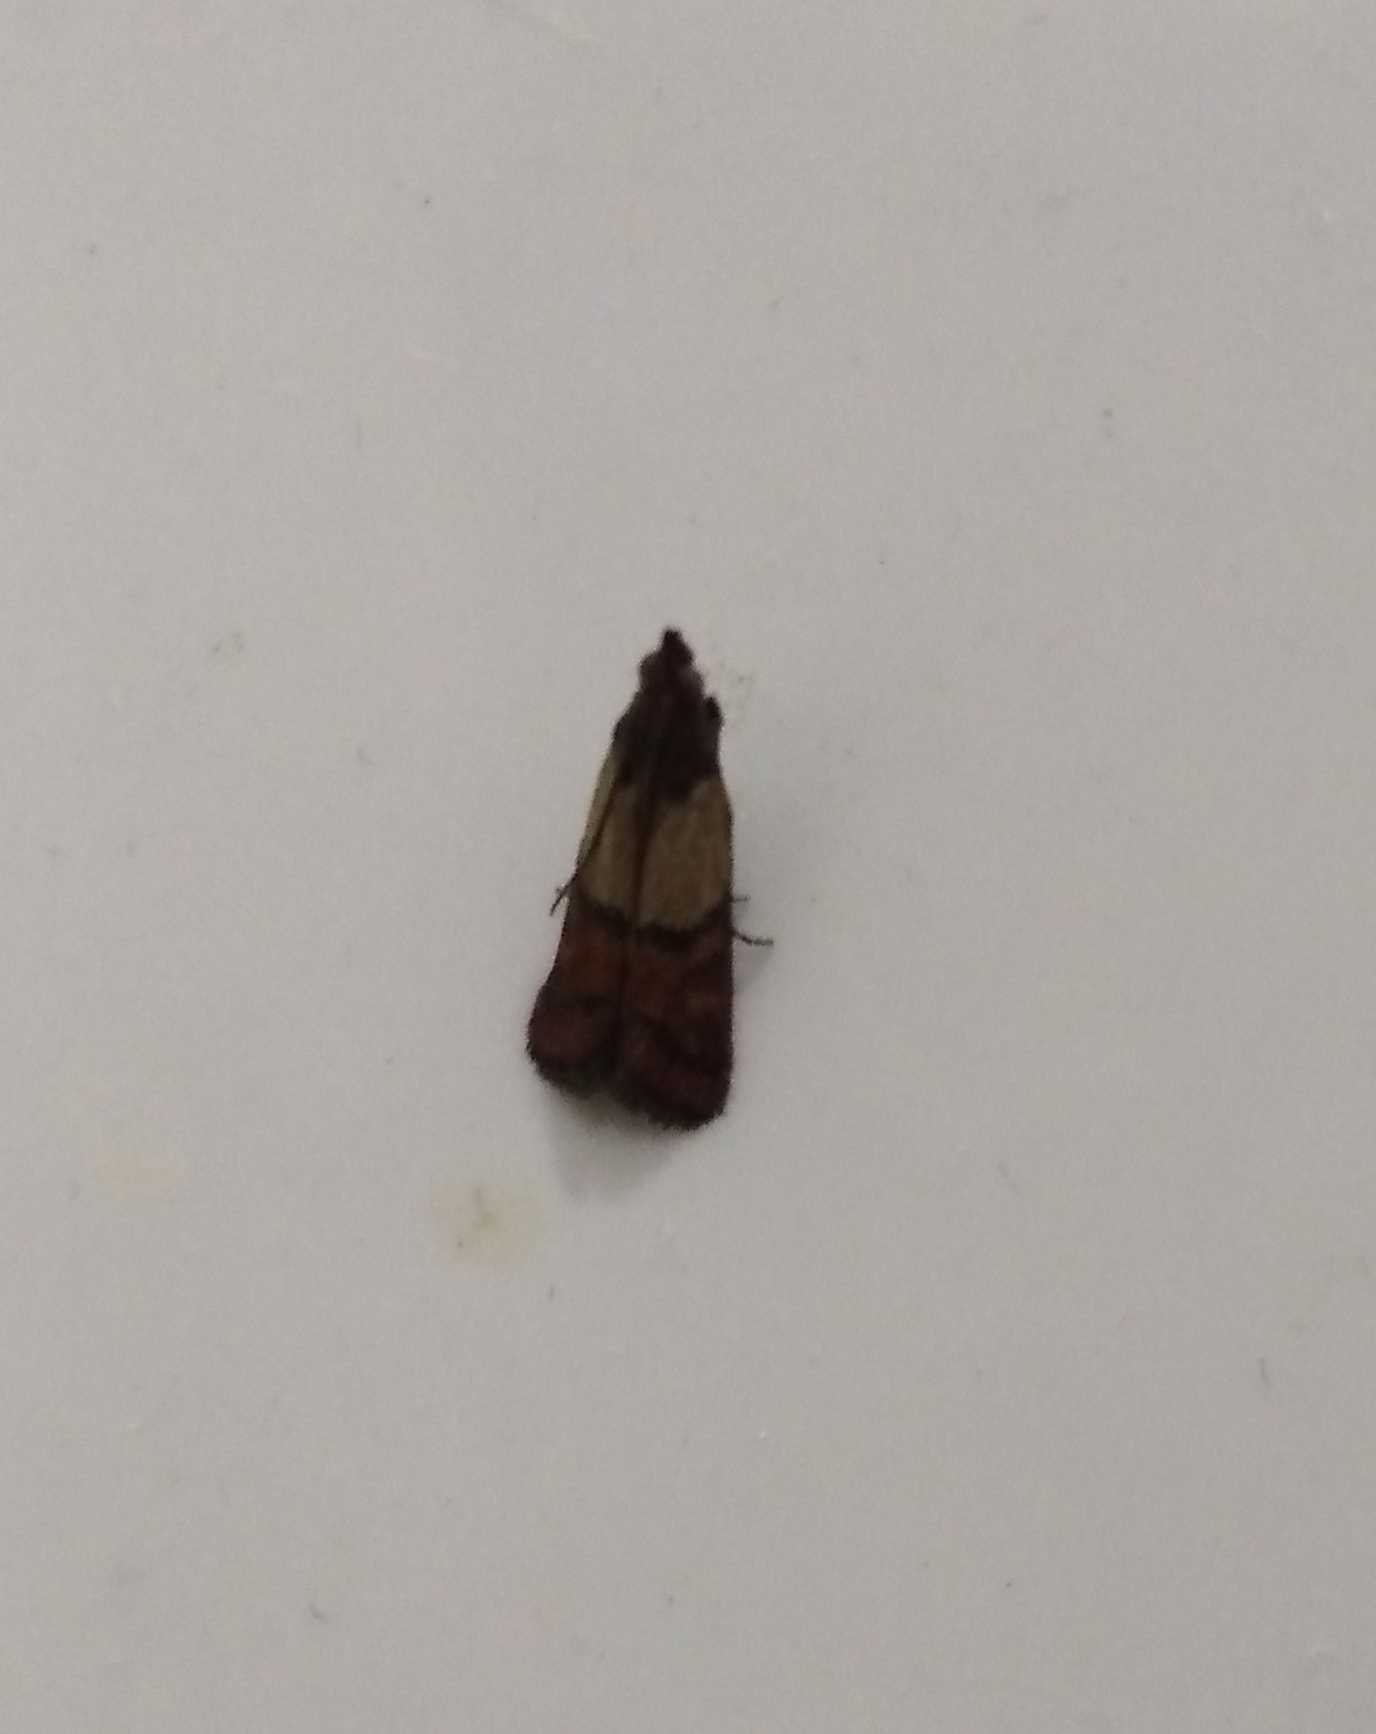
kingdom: Animalia
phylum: Arthropoda
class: Insecta
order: Lepidoptera
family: Pyralidae
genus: Plodia
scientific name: Plodia interpunctella
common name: Indian meal moth
